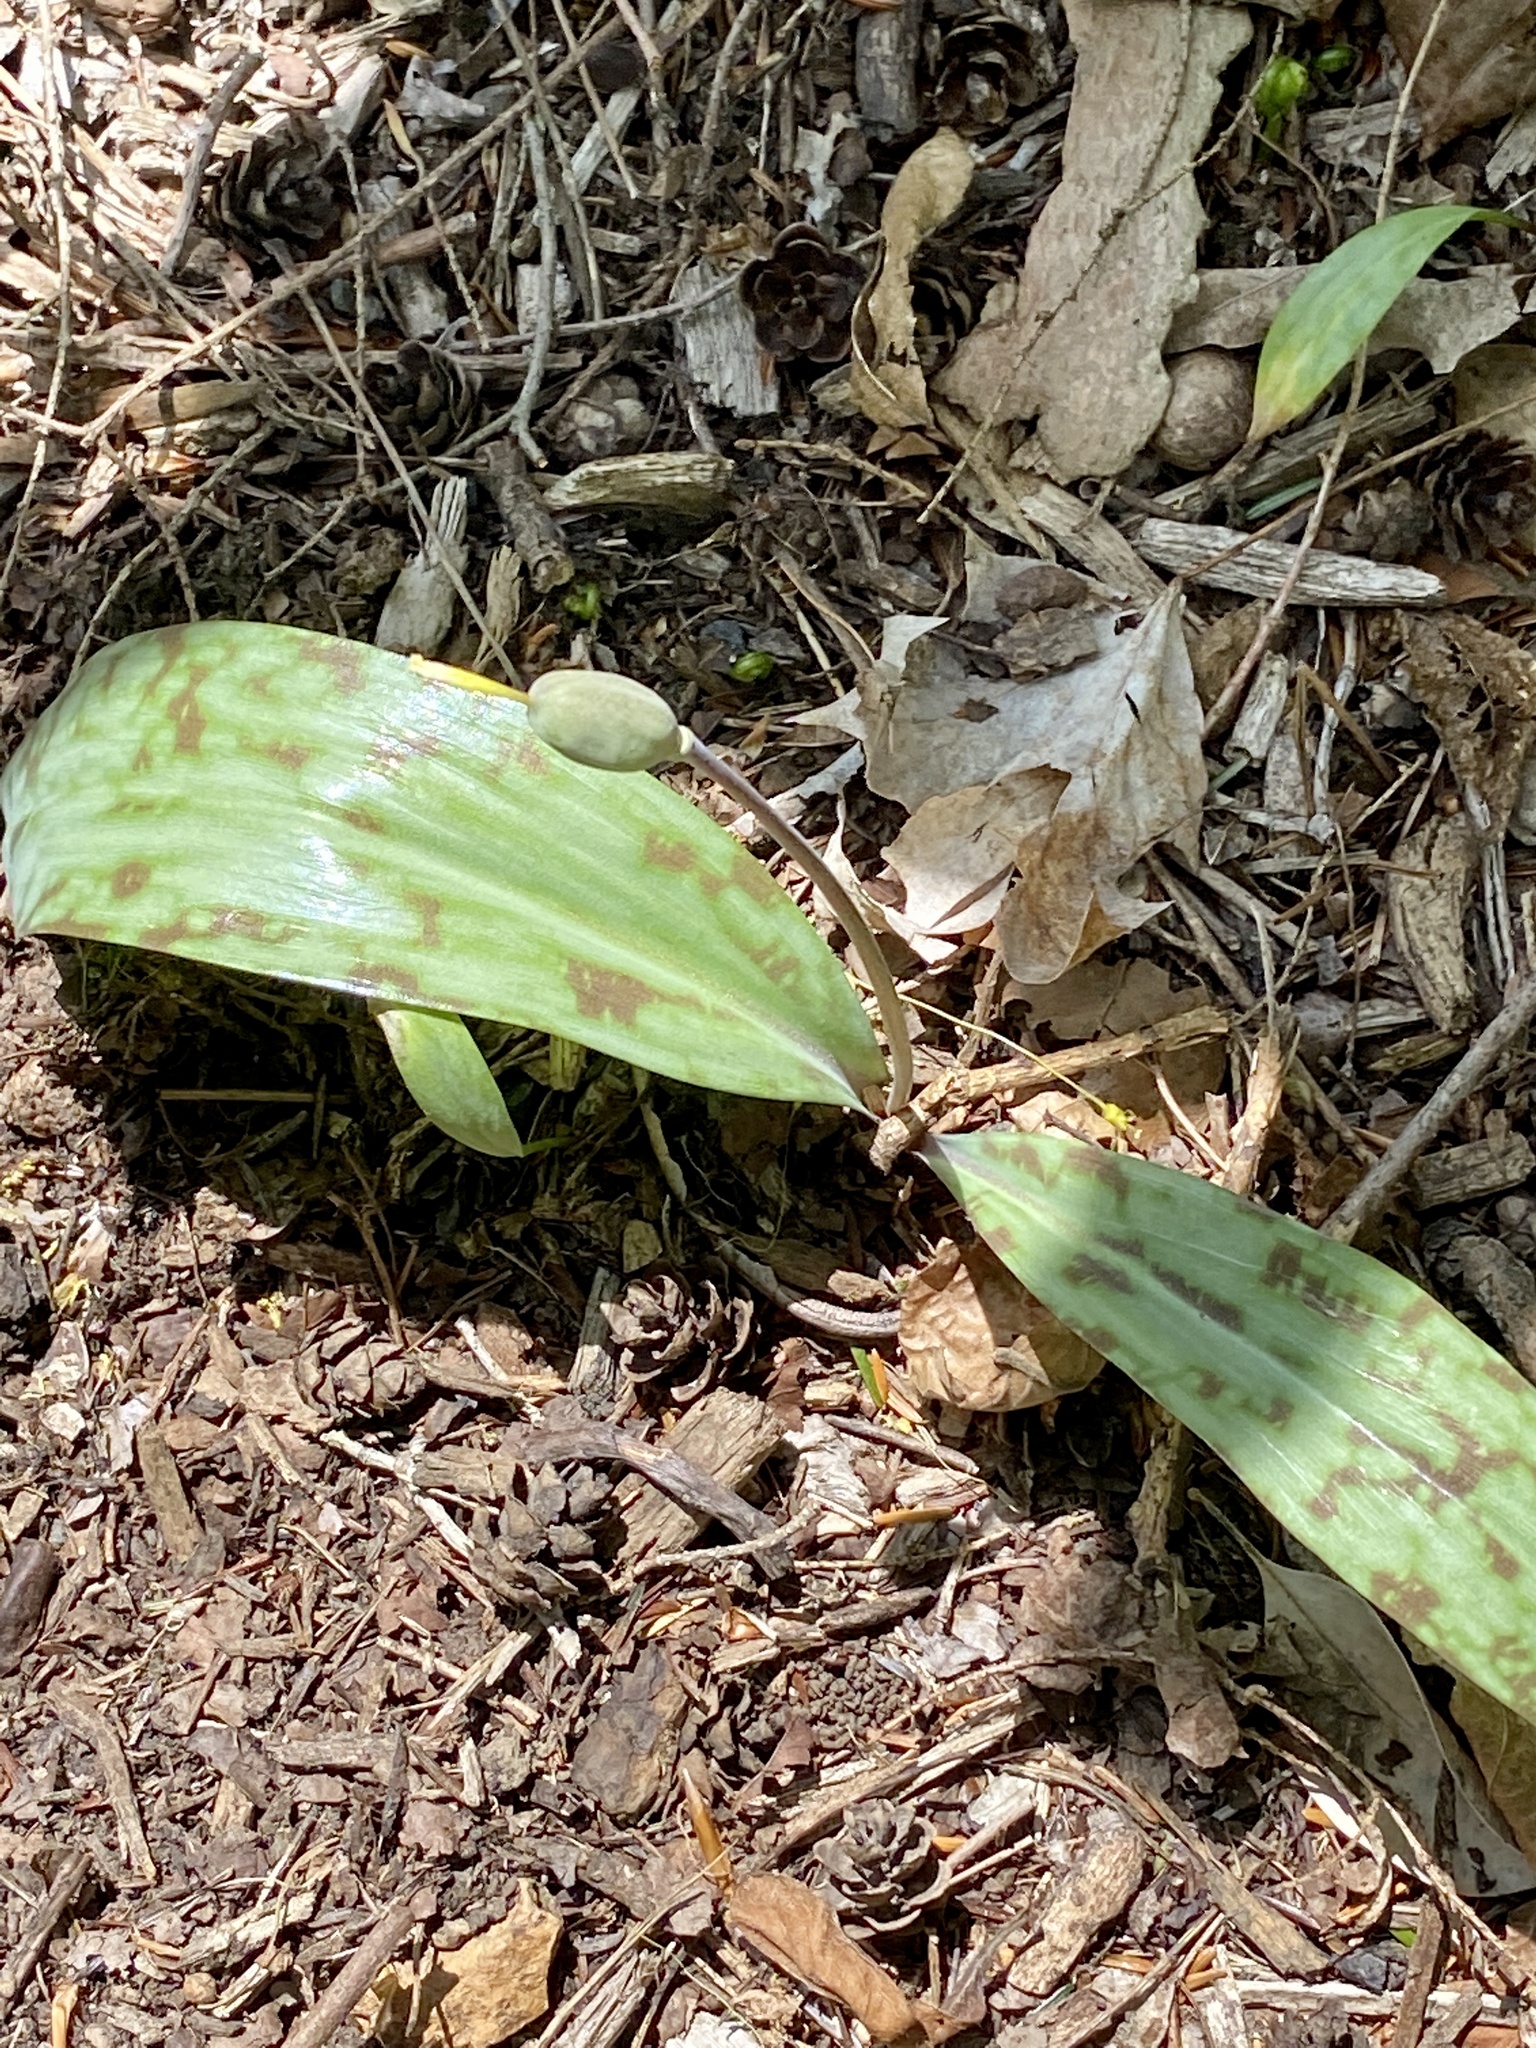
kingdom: Plantae
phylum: Tracheophyta
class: Liliopsida
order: Liliales
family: Liliaceae
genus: Erythronium
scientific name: Erythronium americanum
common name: Yellow adder's-tongue
